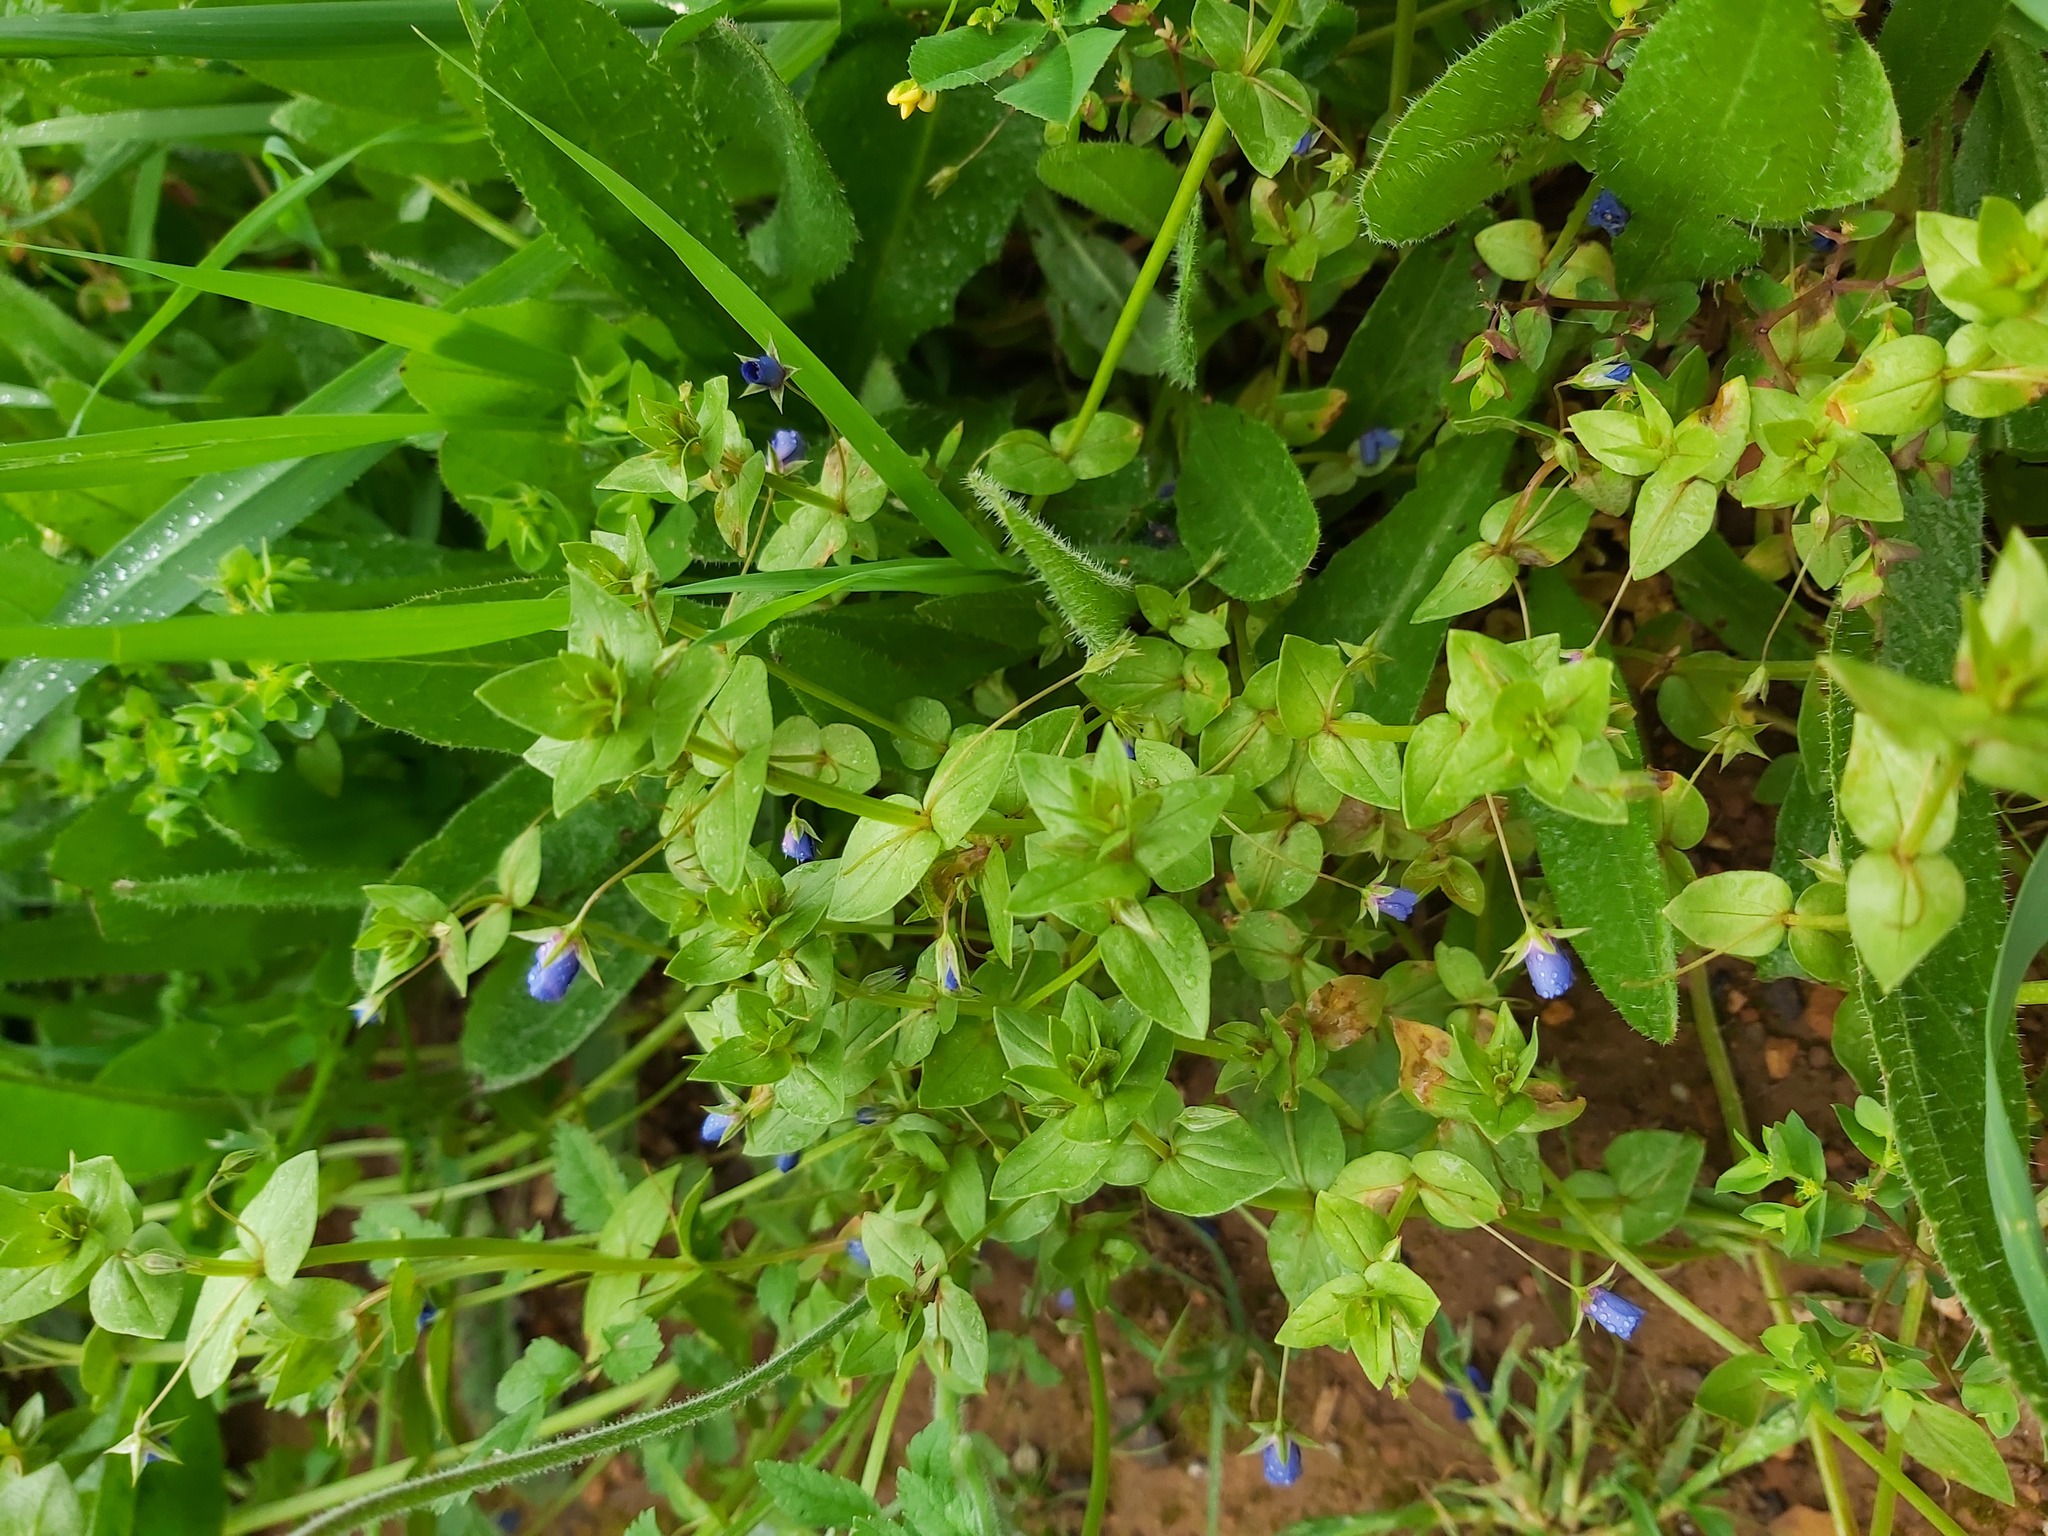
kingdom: Plantae
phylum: Tracheophyta
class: Magnoliopsida
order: Ericales
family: Primulaceae
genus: Lysimachia
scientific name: Lysimachia loeflingii
